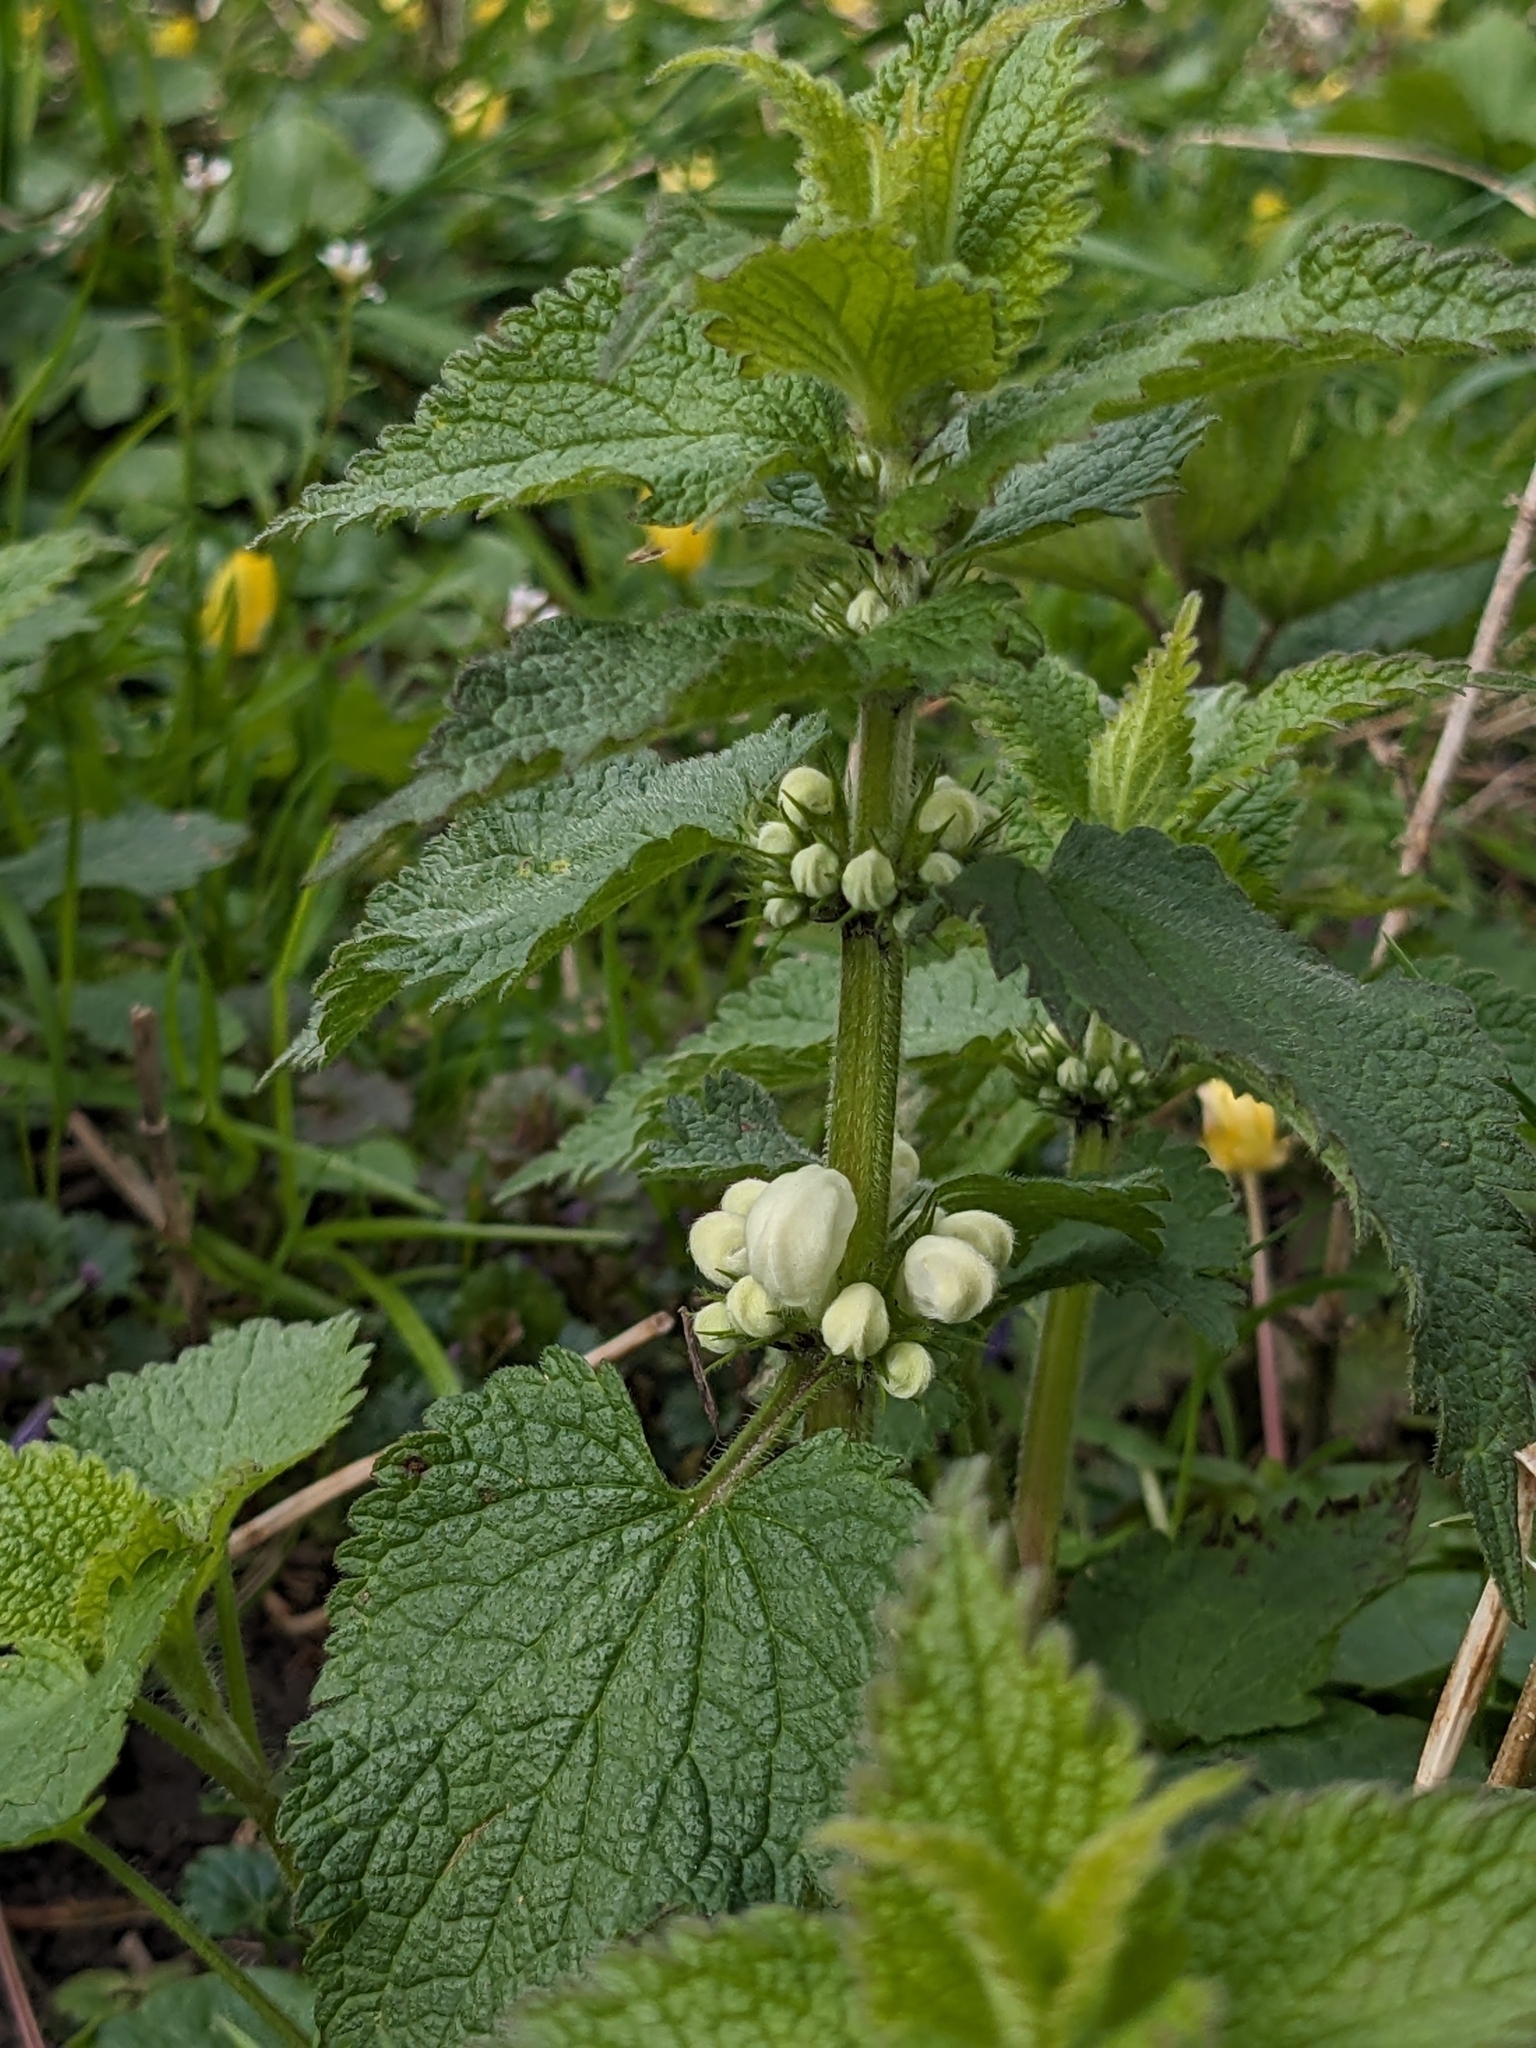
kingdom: Plantae
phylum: Tracheophyta
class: Magnoliopsida
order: Lamiales
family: Lamiaceae
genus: Lamium
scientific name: Lamium album
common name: White dead-nettle
